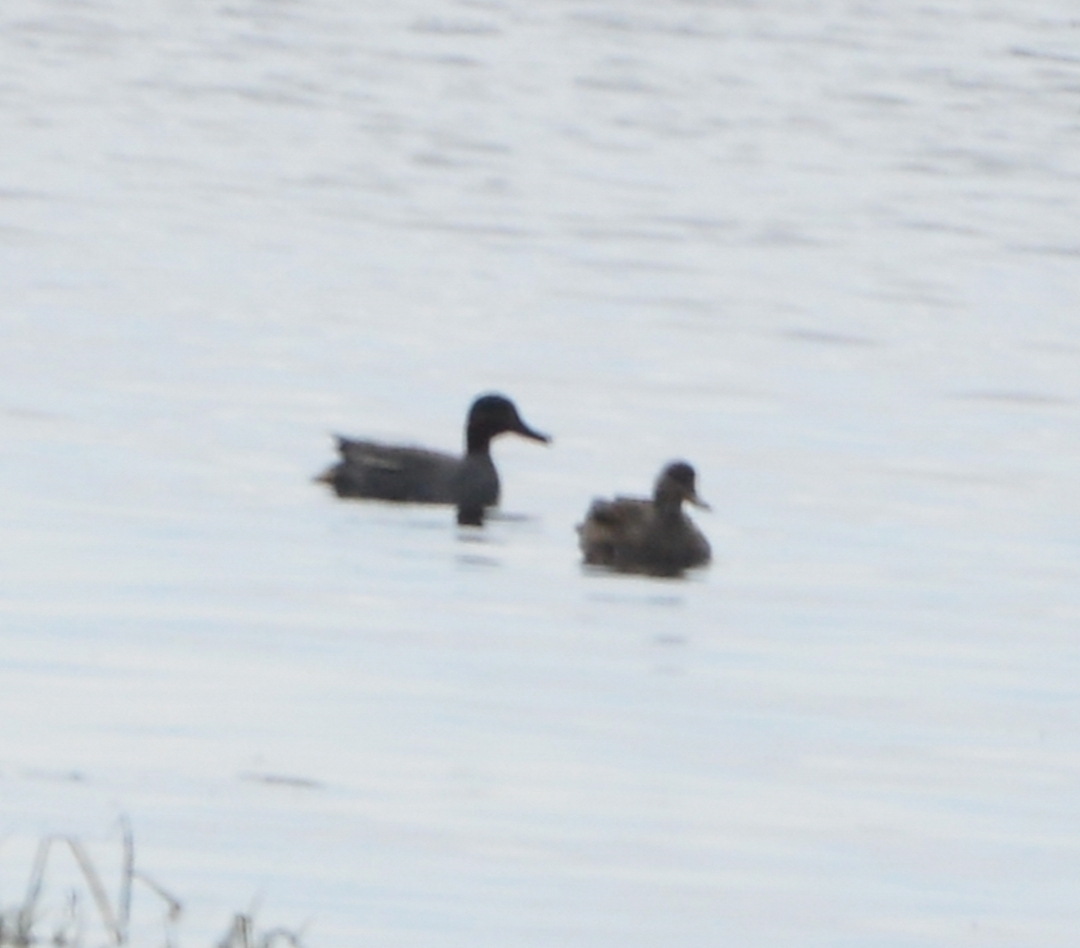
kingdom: Animalia
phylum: Chordata
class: Aves
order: Anseriformes
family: Anatidae
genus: Anas
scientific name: Anas crecca
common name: Eurasian teal
